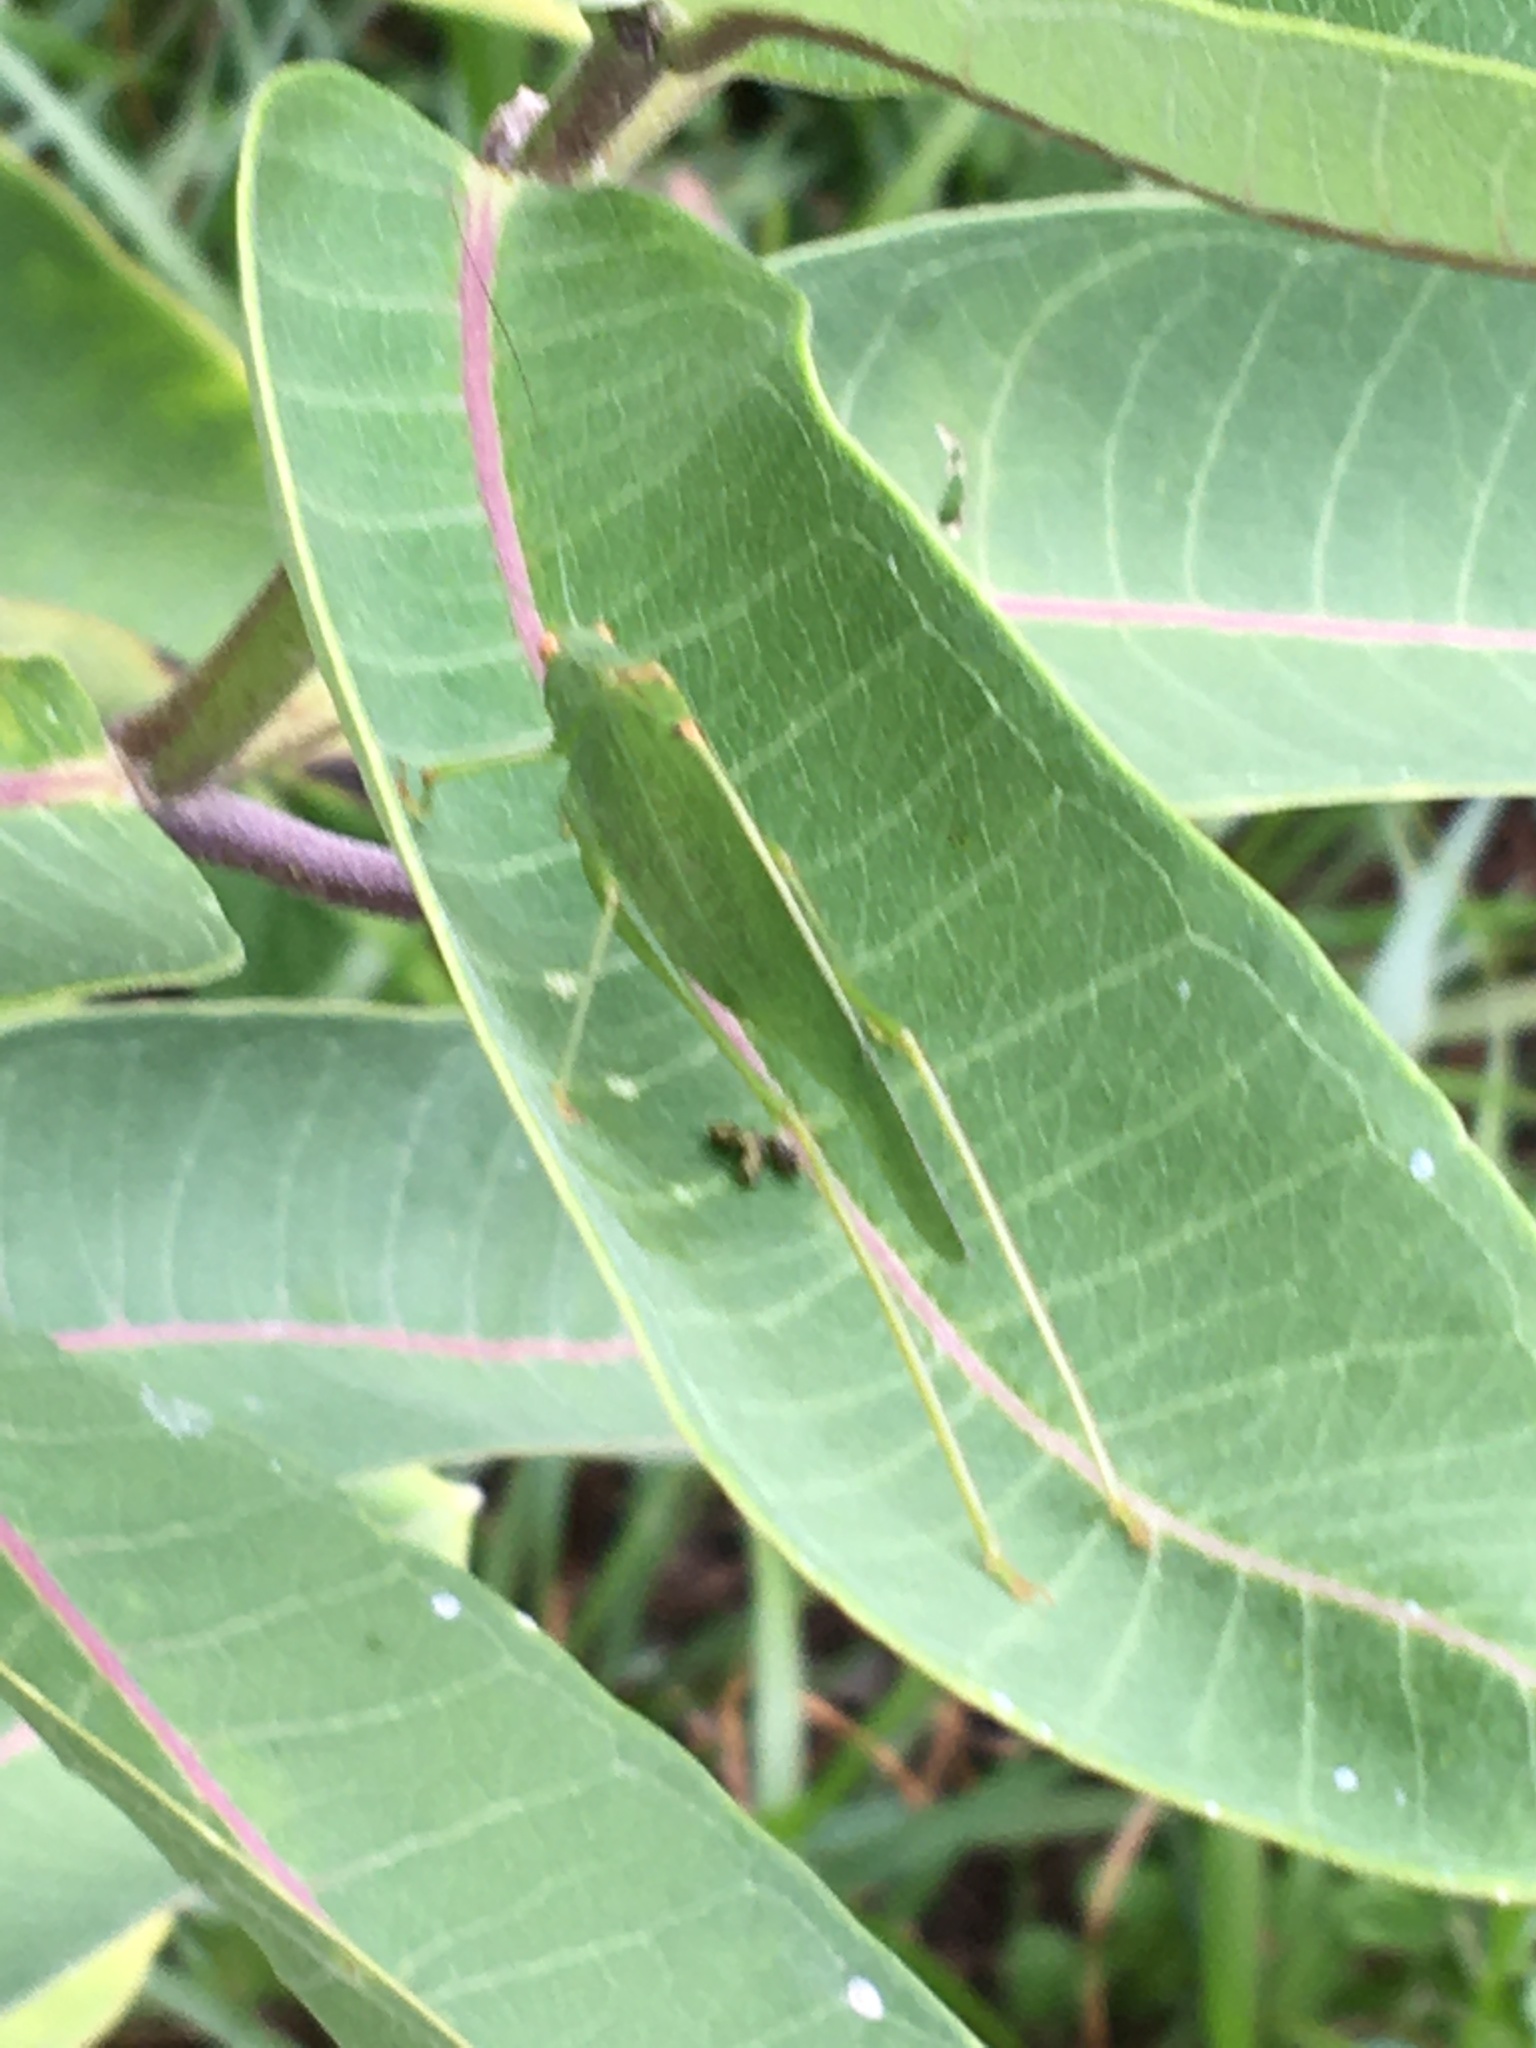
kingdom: Animalia
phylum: Arthropoda
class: Insecta
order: Orthoptera
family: Tettigoniidae
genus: Phaneroptera
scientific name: Phaneroptera nana
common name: Southern sickle bush-cricket
